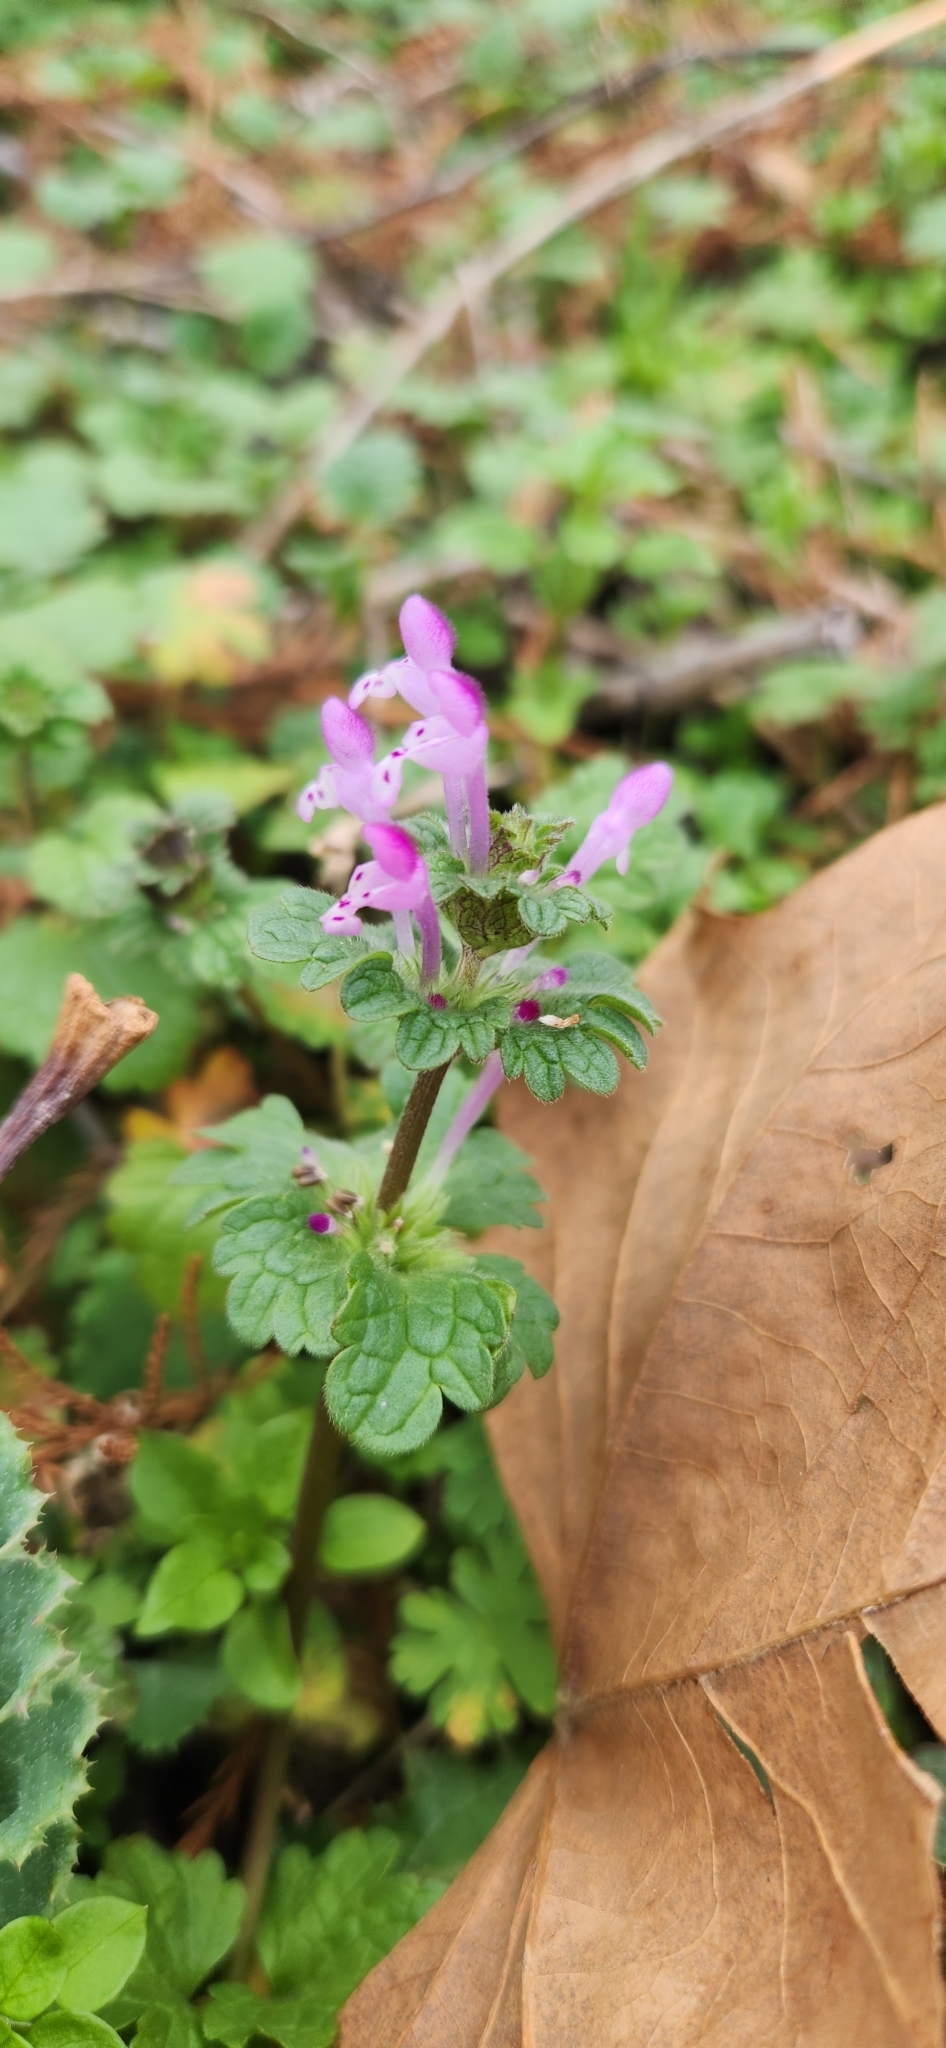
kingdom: Plantae
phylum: Tracheophyta
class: Magnoliopsida
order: Lamiales
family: Lamiaceae
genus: Lamium
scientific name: Lamium amplexicaule
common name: Henbit dead-nettle
